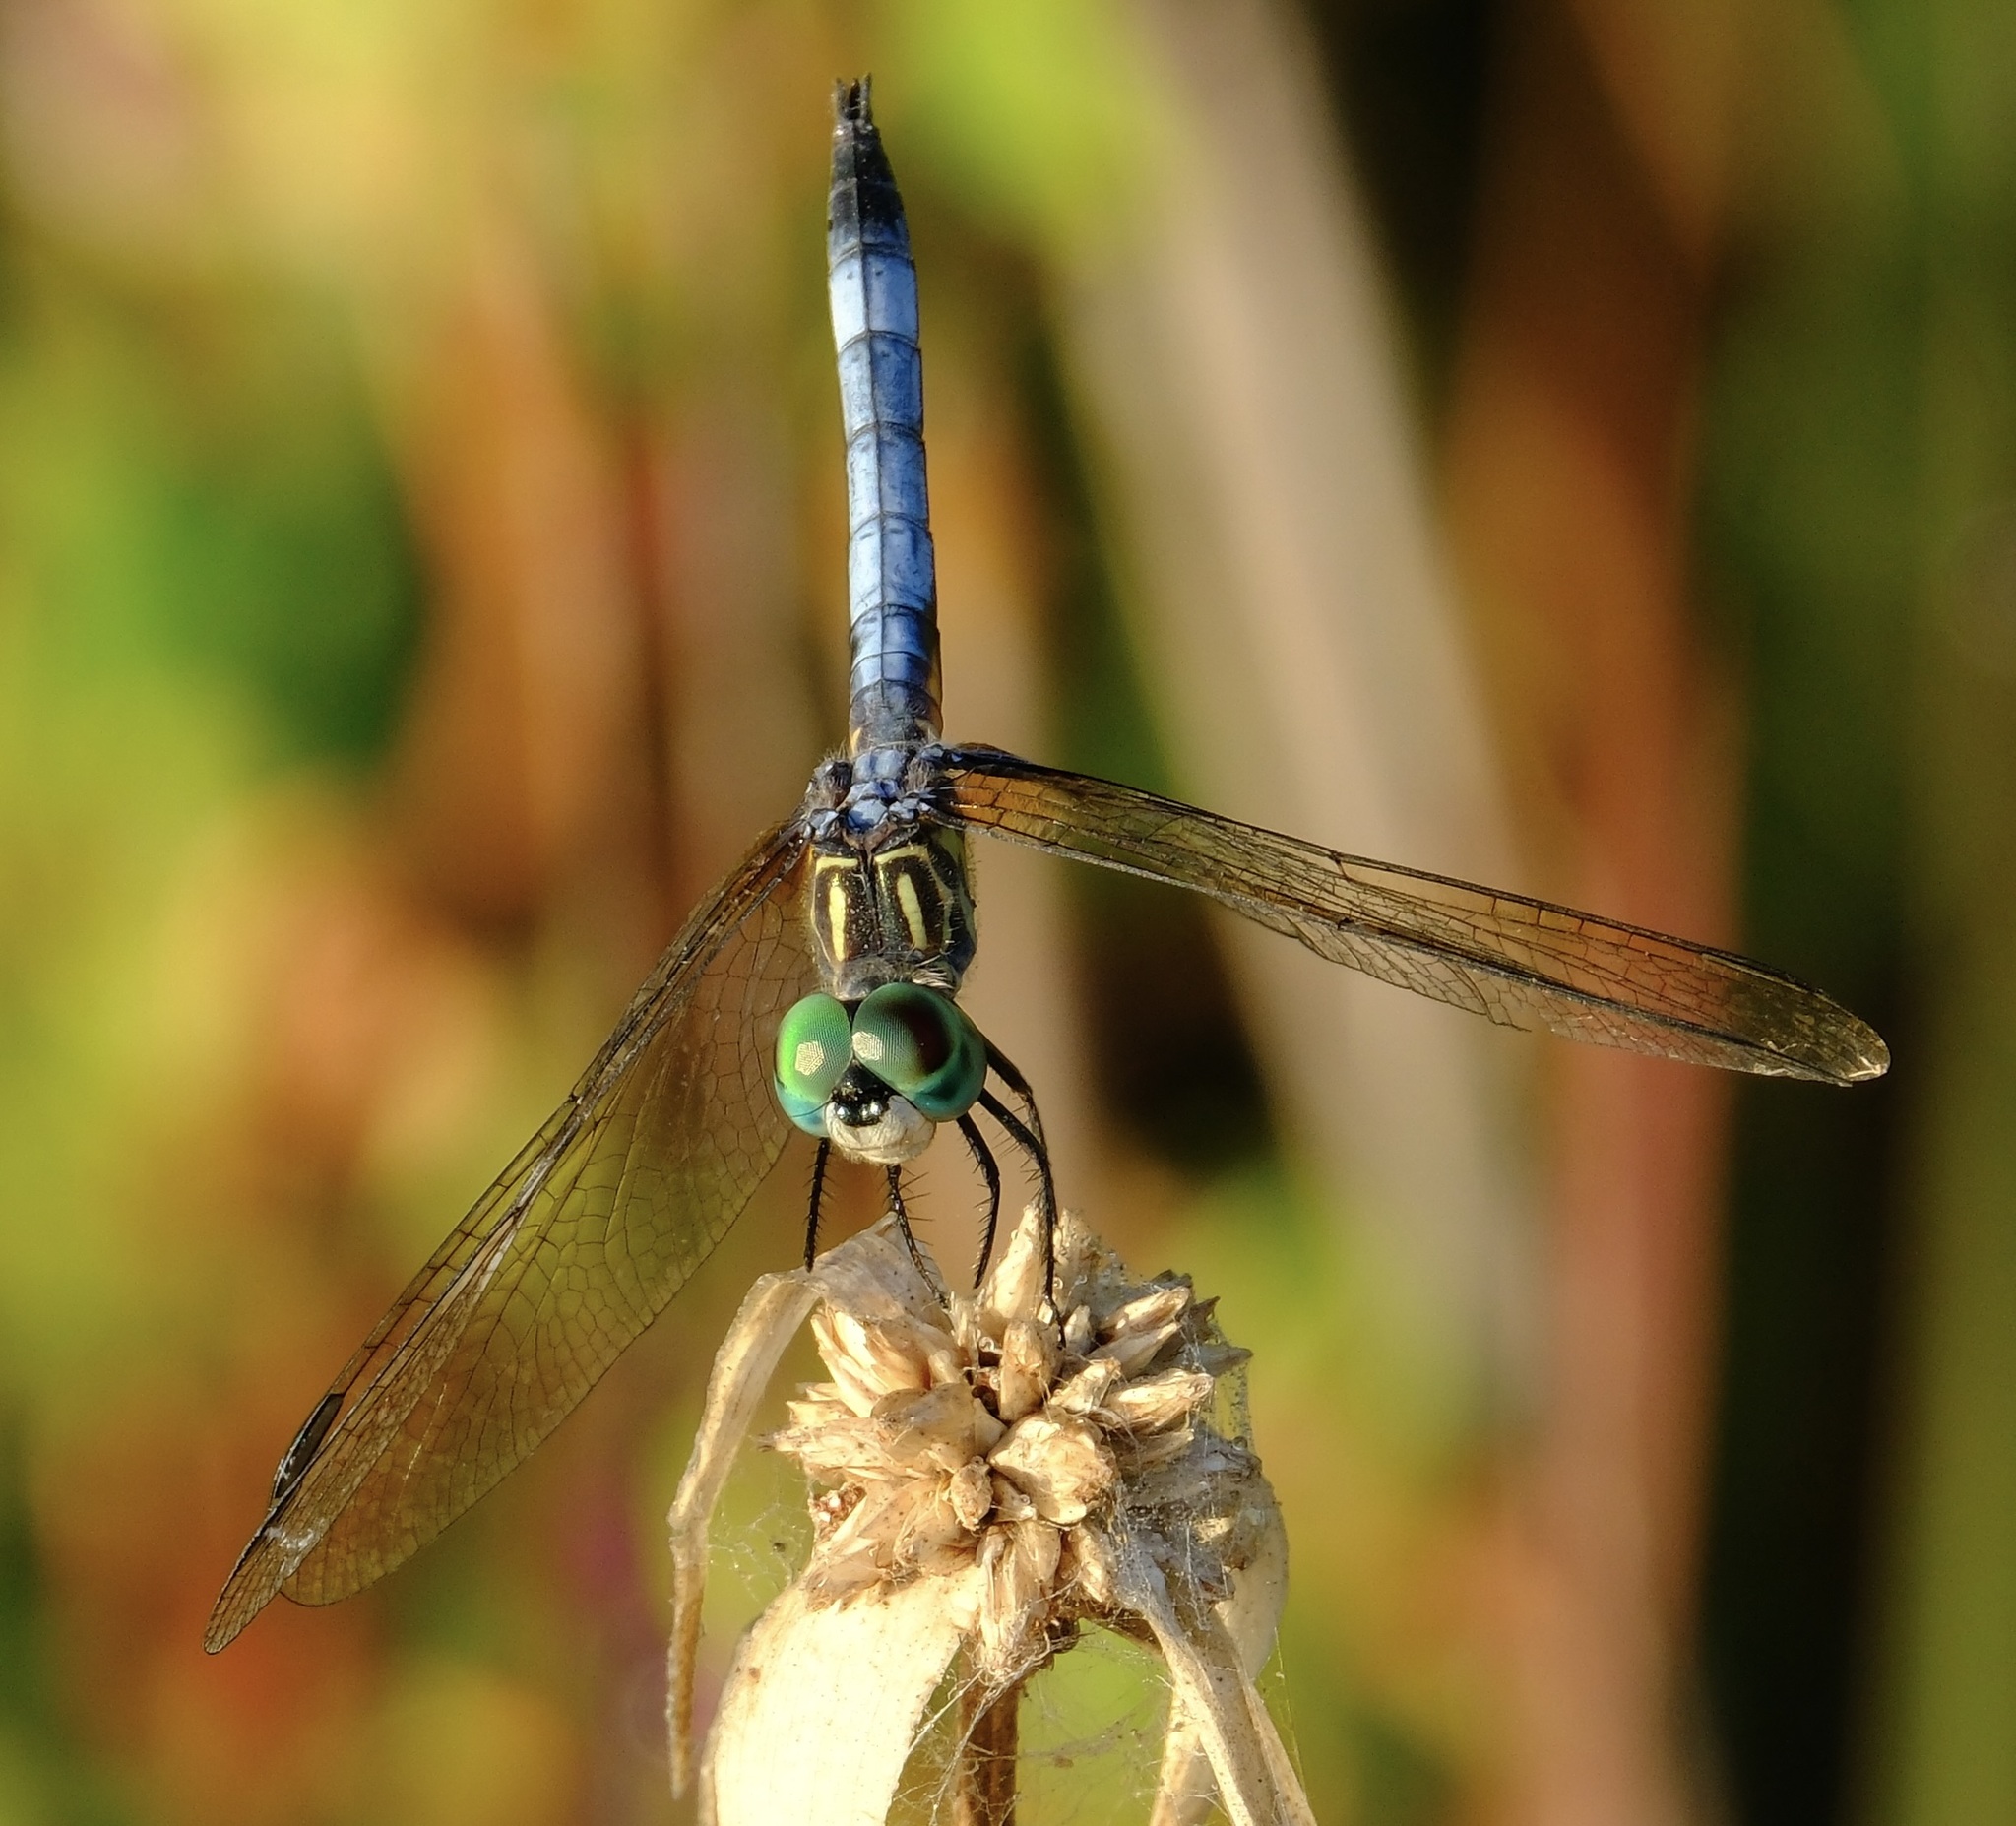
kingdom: Animalia
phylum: Arthropoda
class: Insecta
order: Odonata
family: Libellulidae
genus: Pachydiplax
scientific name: Pachydiplax longipennis
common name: Blue dasher
